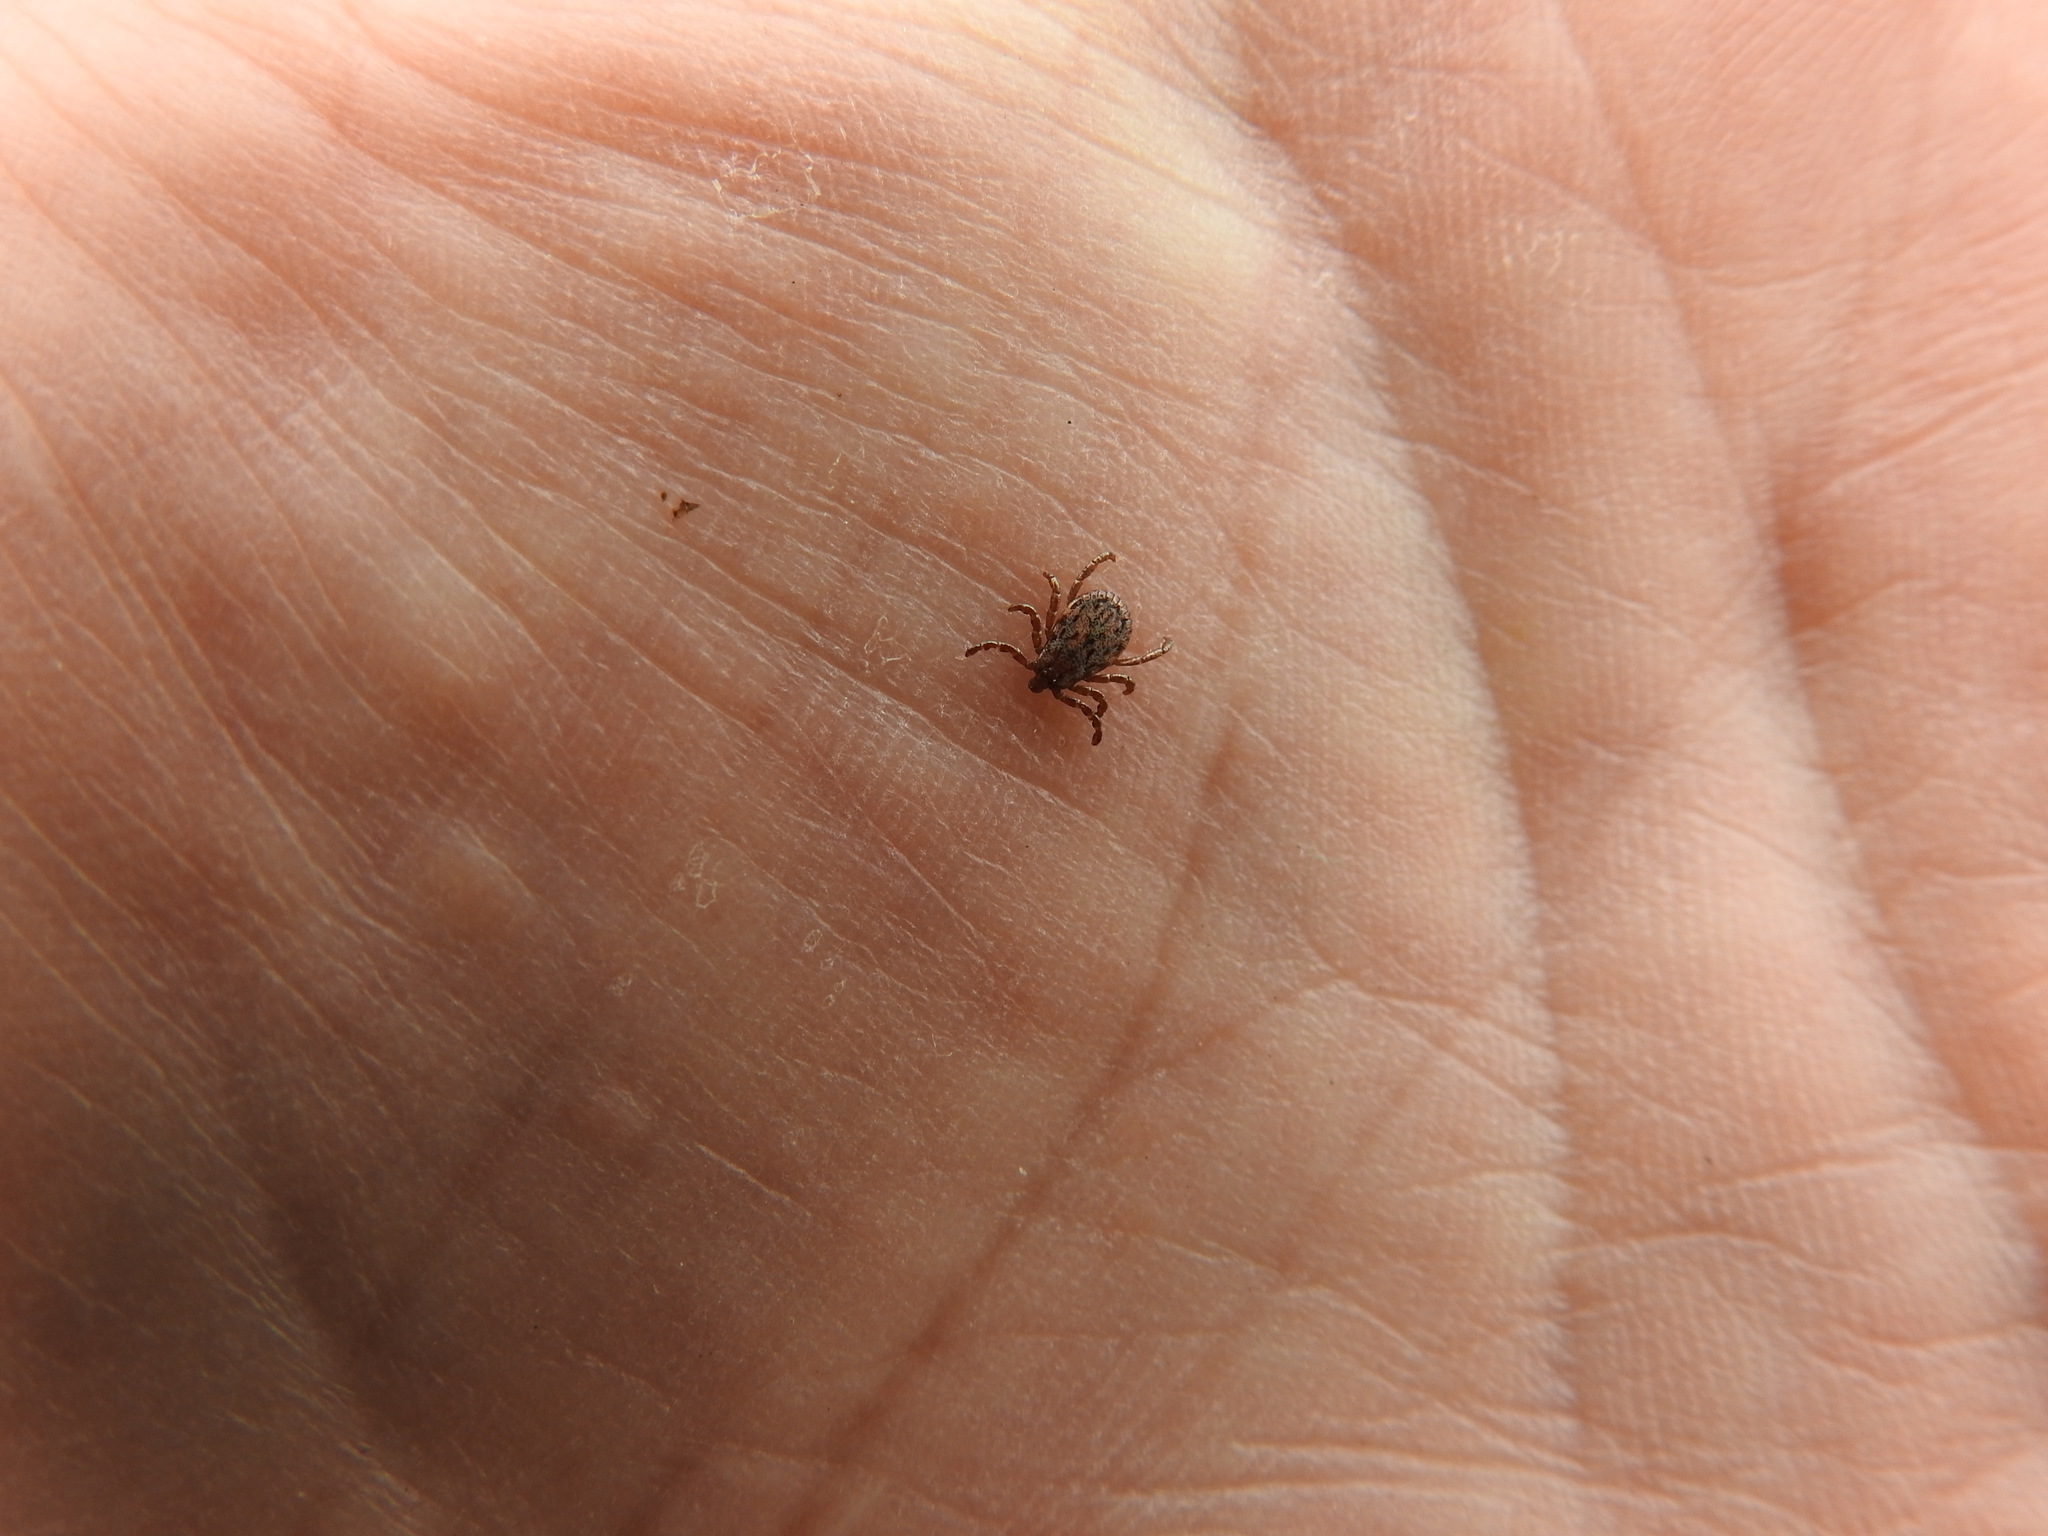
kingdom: Animalia
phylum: Arthropoda
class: Arachnida
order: Ixodida
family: Ixodidae
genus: Dermacentor
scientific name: Dermacentor occidentalis
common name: Net tick
